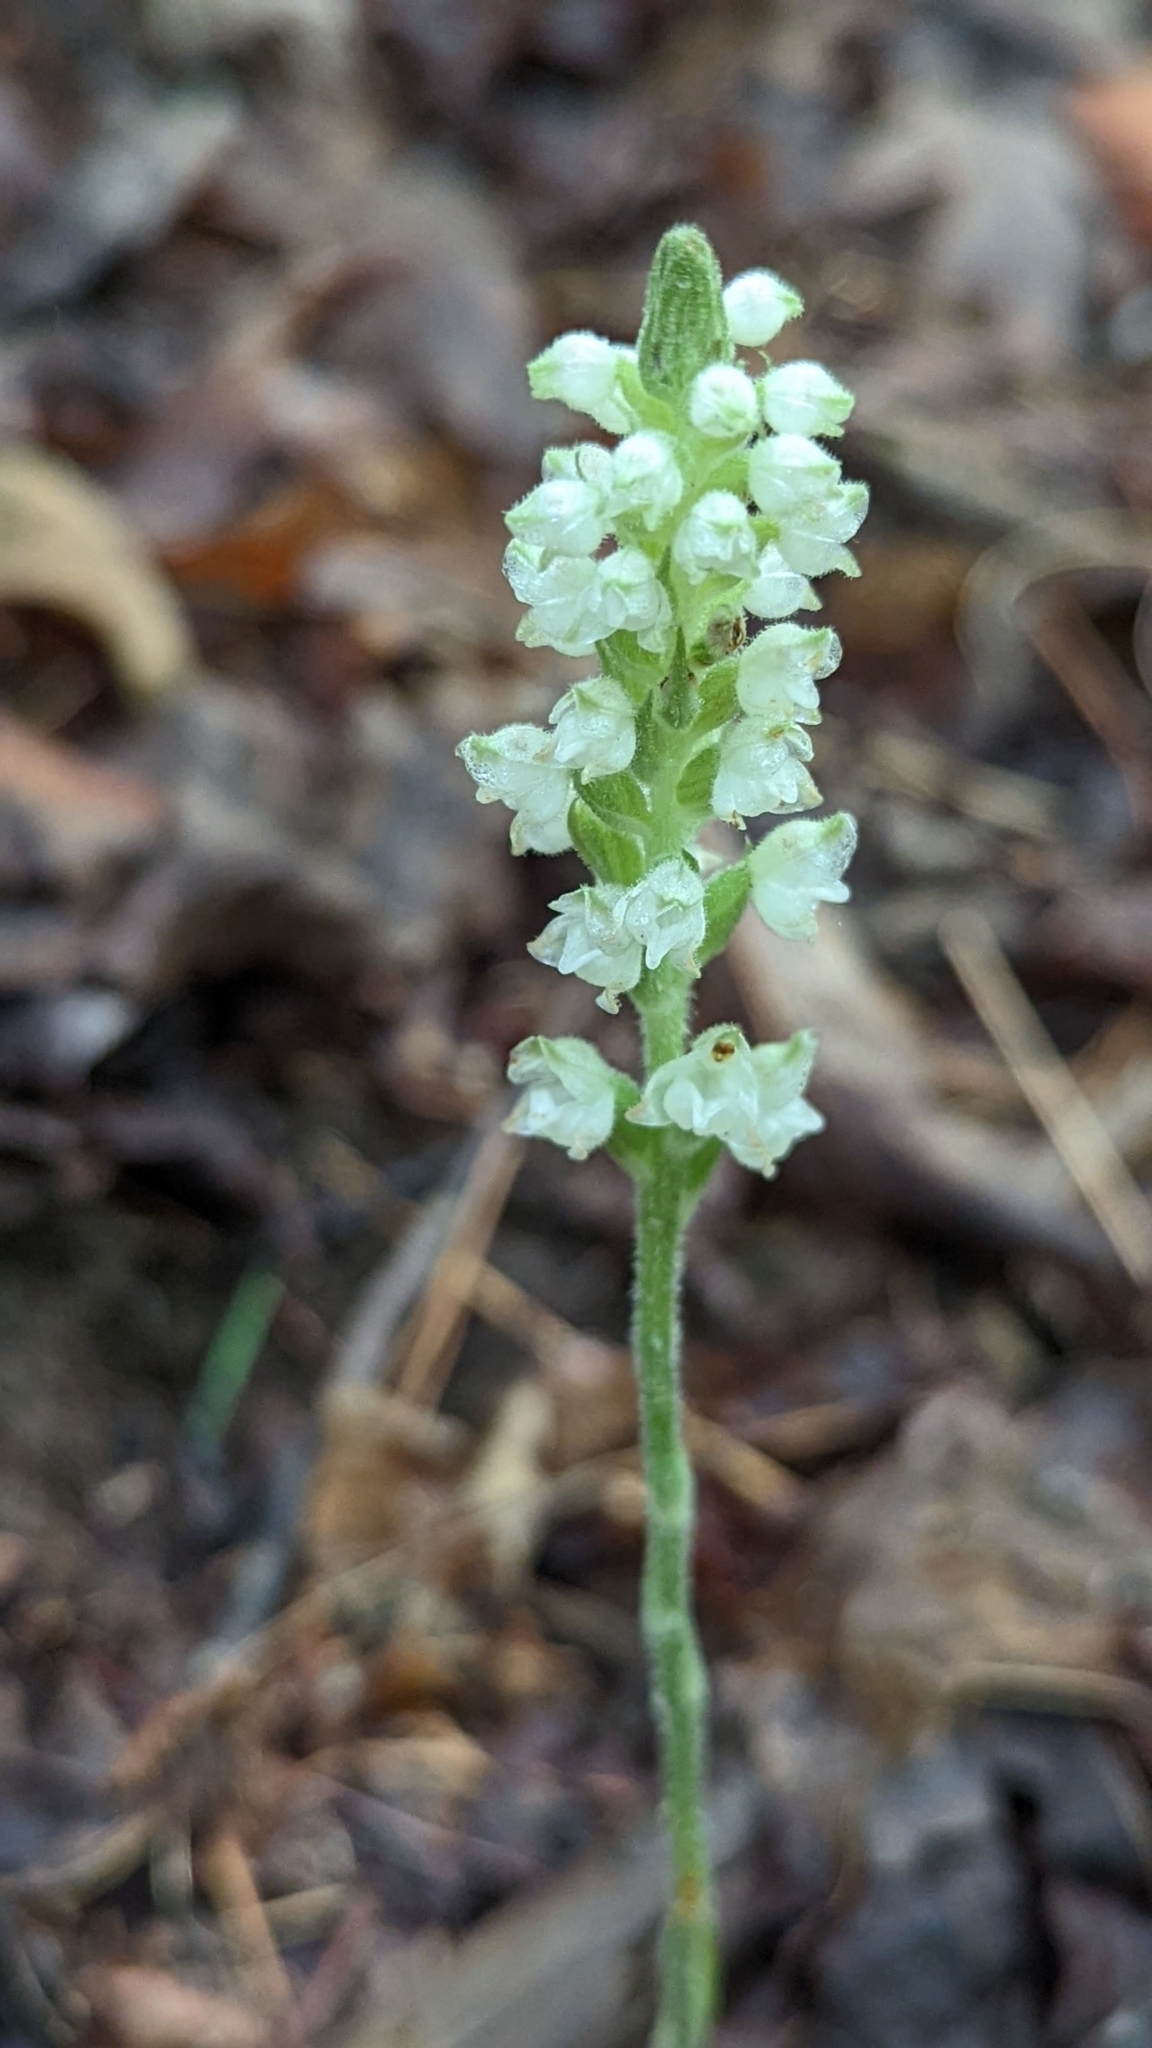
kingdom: Plantae
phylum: Tracheophyta
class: Liliopsida
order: Asparagales
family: Orchidaceae
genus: Goodyera
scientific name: Goodyera pubescens
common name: Downy rattlesnake-plantain
